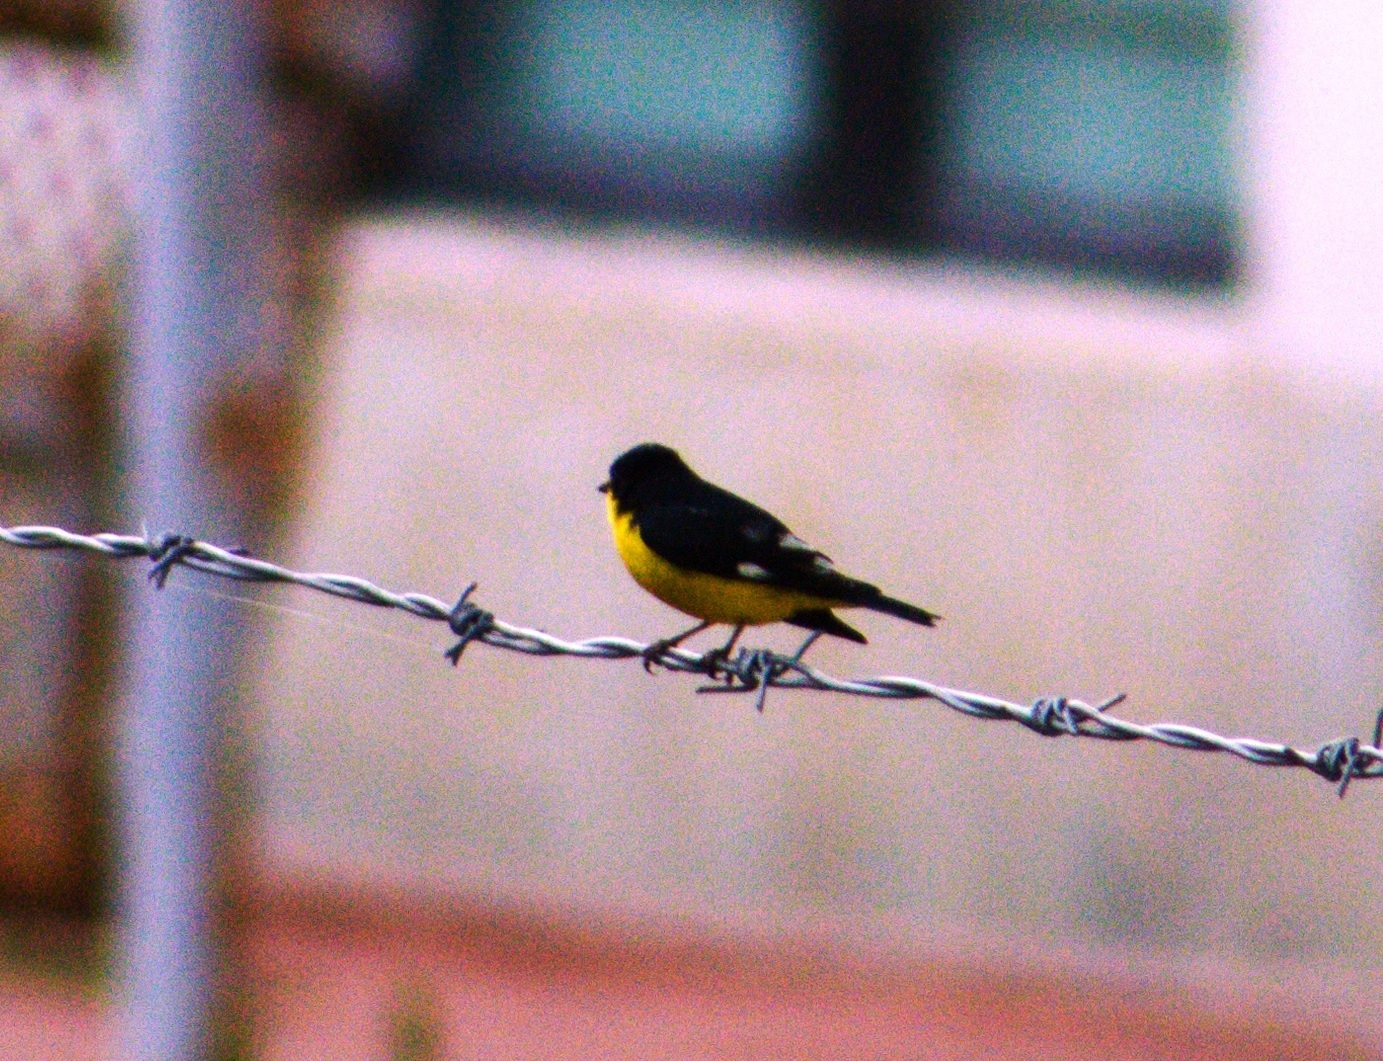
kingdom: Animalia
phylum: Chordata
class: Aves
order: Passeriformes
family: Fringillidae
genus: Spinus
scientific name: Spinus psaltria
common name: Lesser goldfinch
